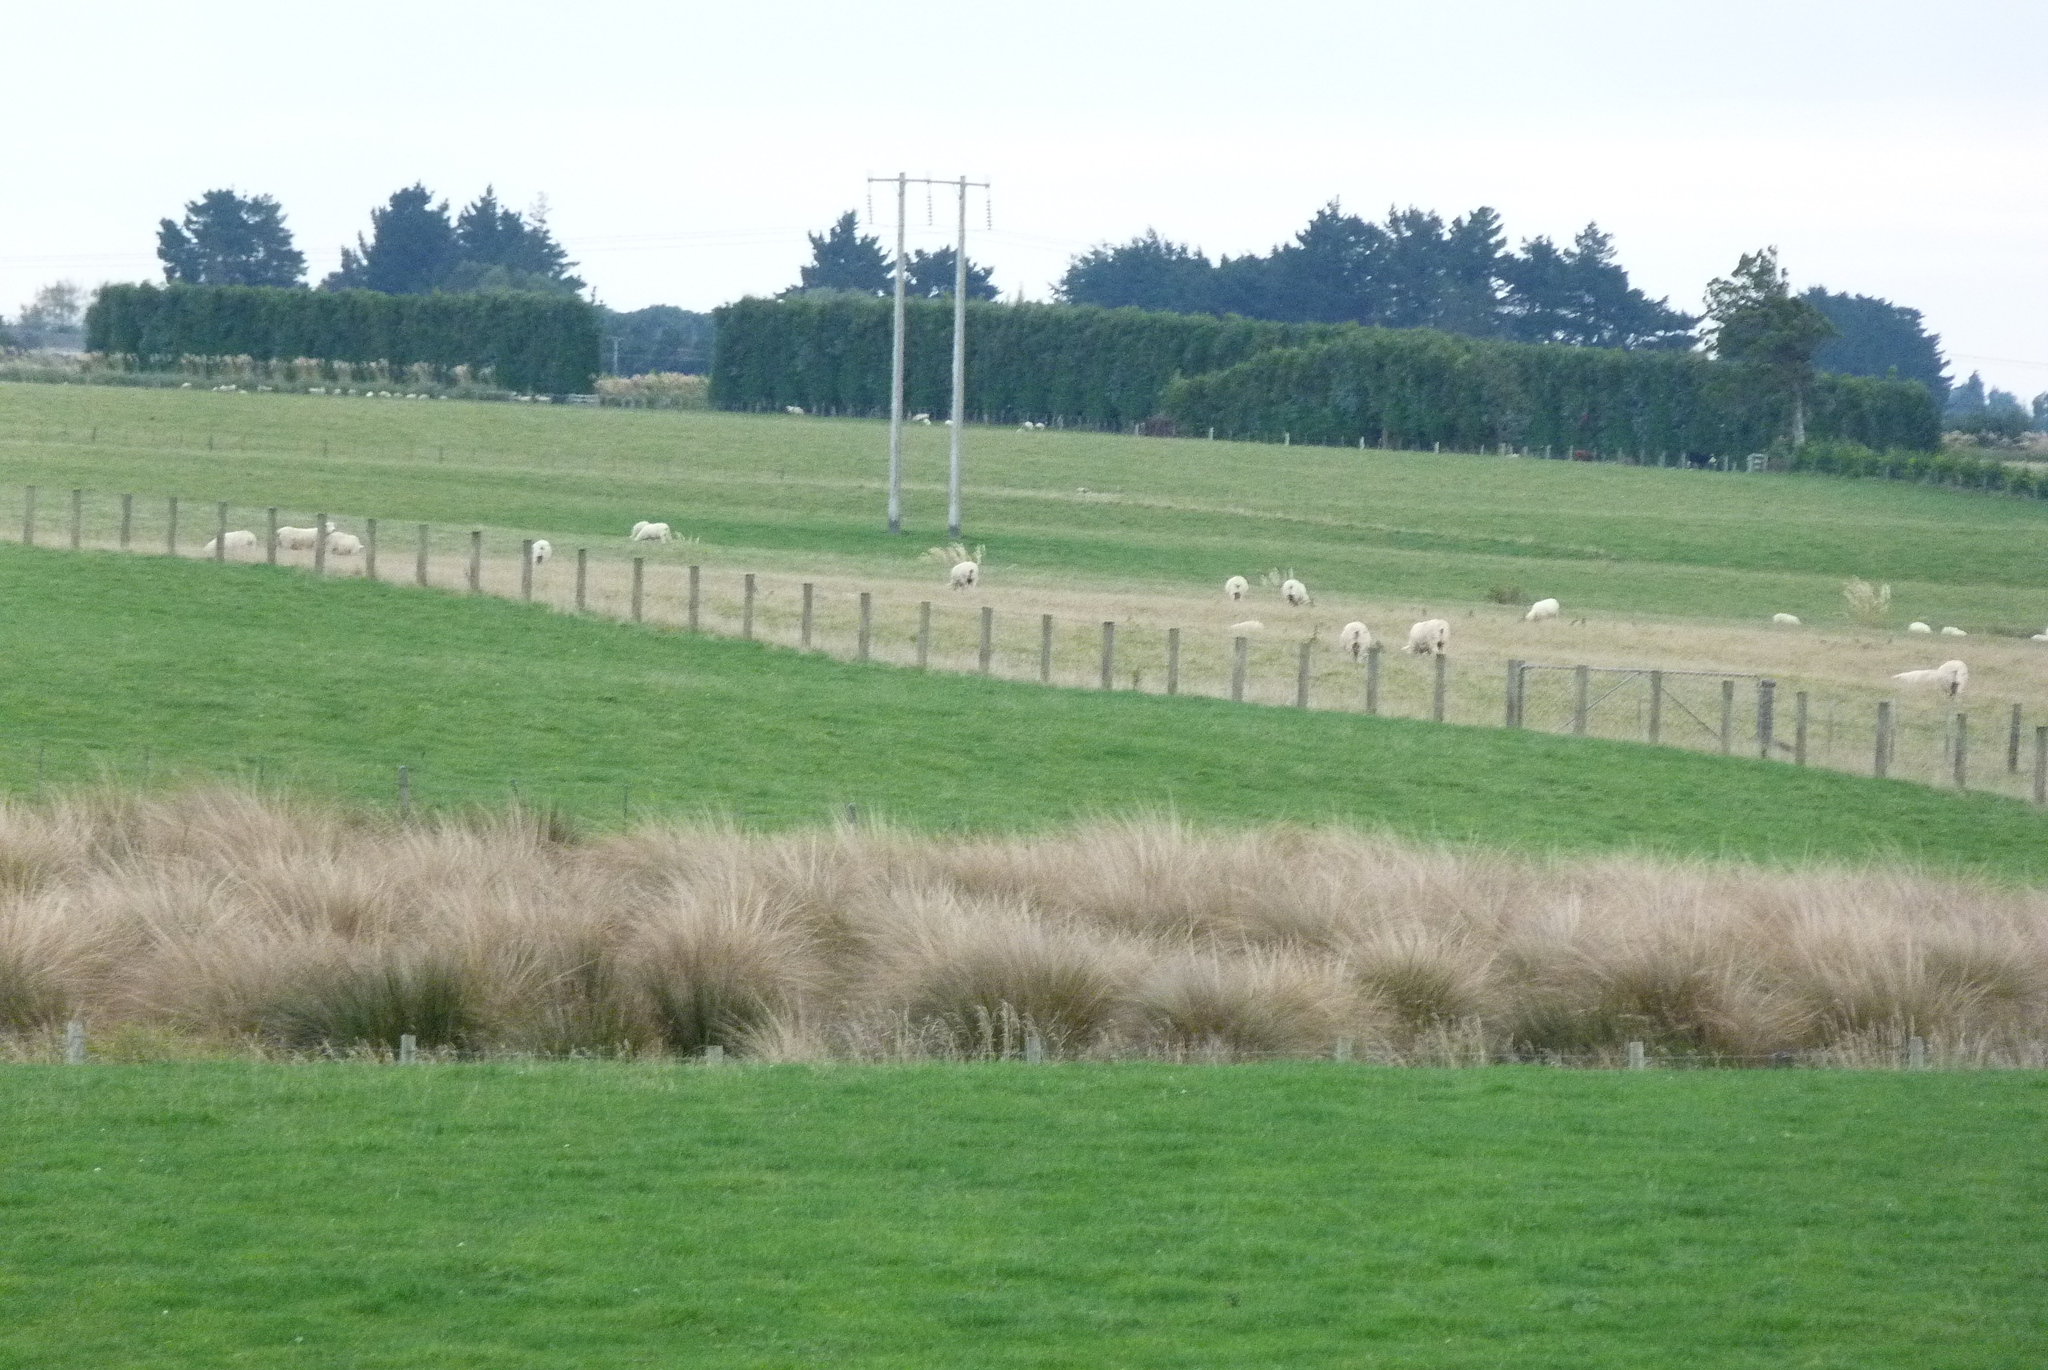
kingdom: Plantae
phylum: Tracheophyta
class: Liliopsida
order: Poales
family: Poaceae
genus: Chionochloa
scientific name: Chionochloa rubra
